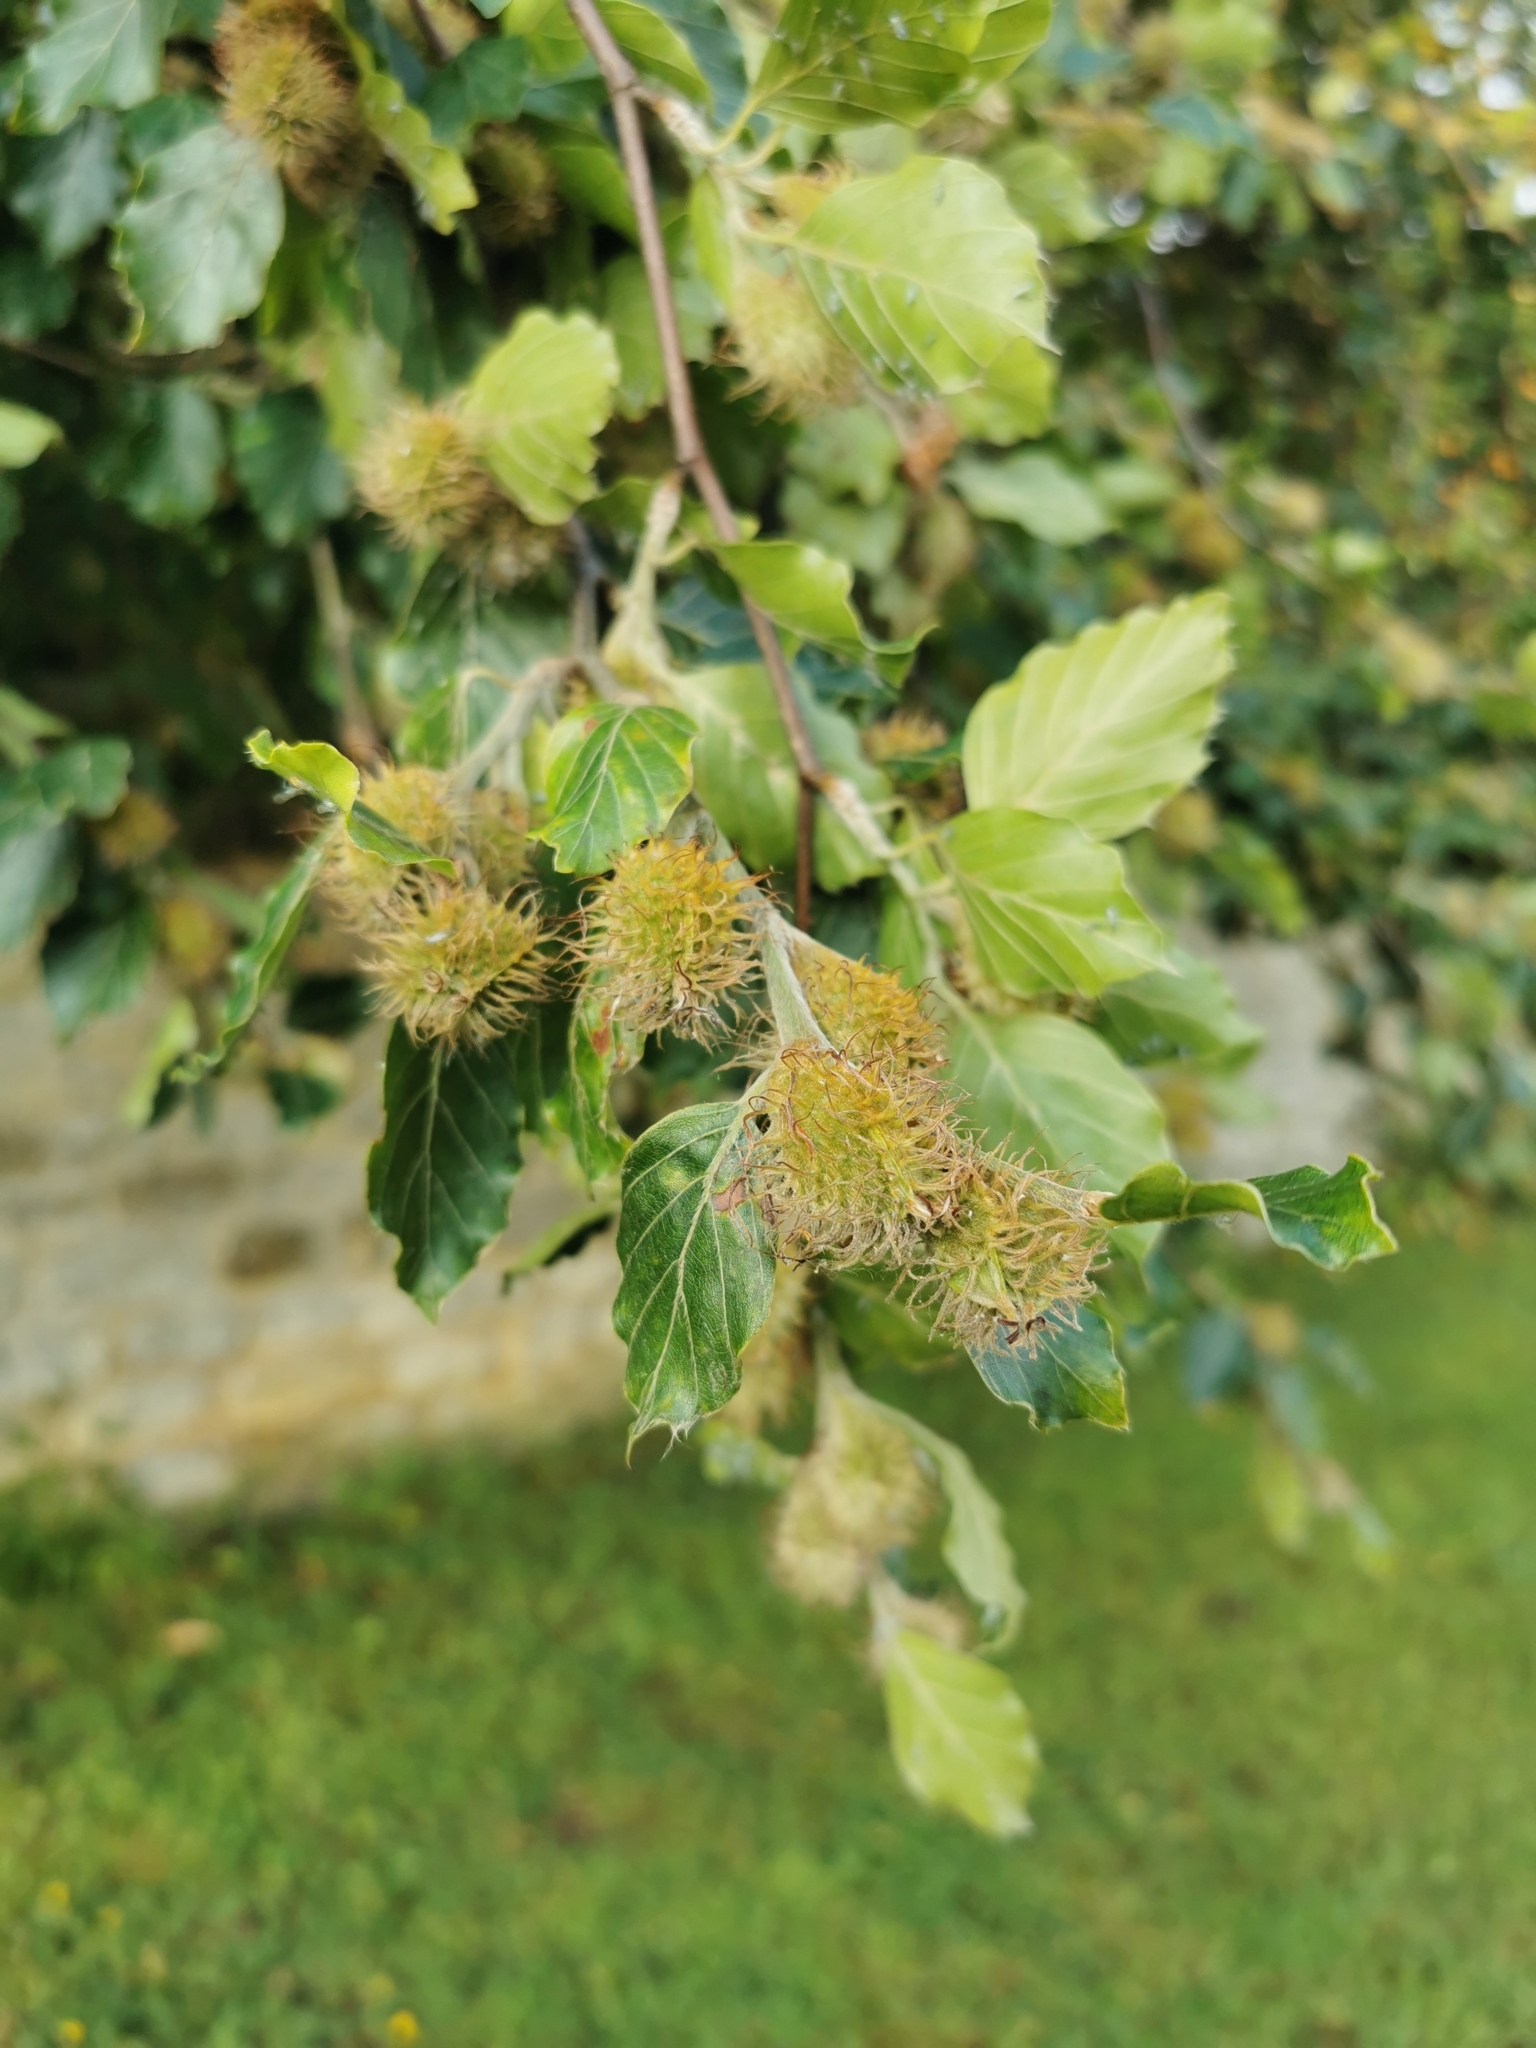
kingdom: Plantae
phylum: Tracheophyta
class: Magnoliopsida
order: Fagales
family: Fagaceae
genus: Fagus
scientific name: Fagus sylvatica
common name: Beech
